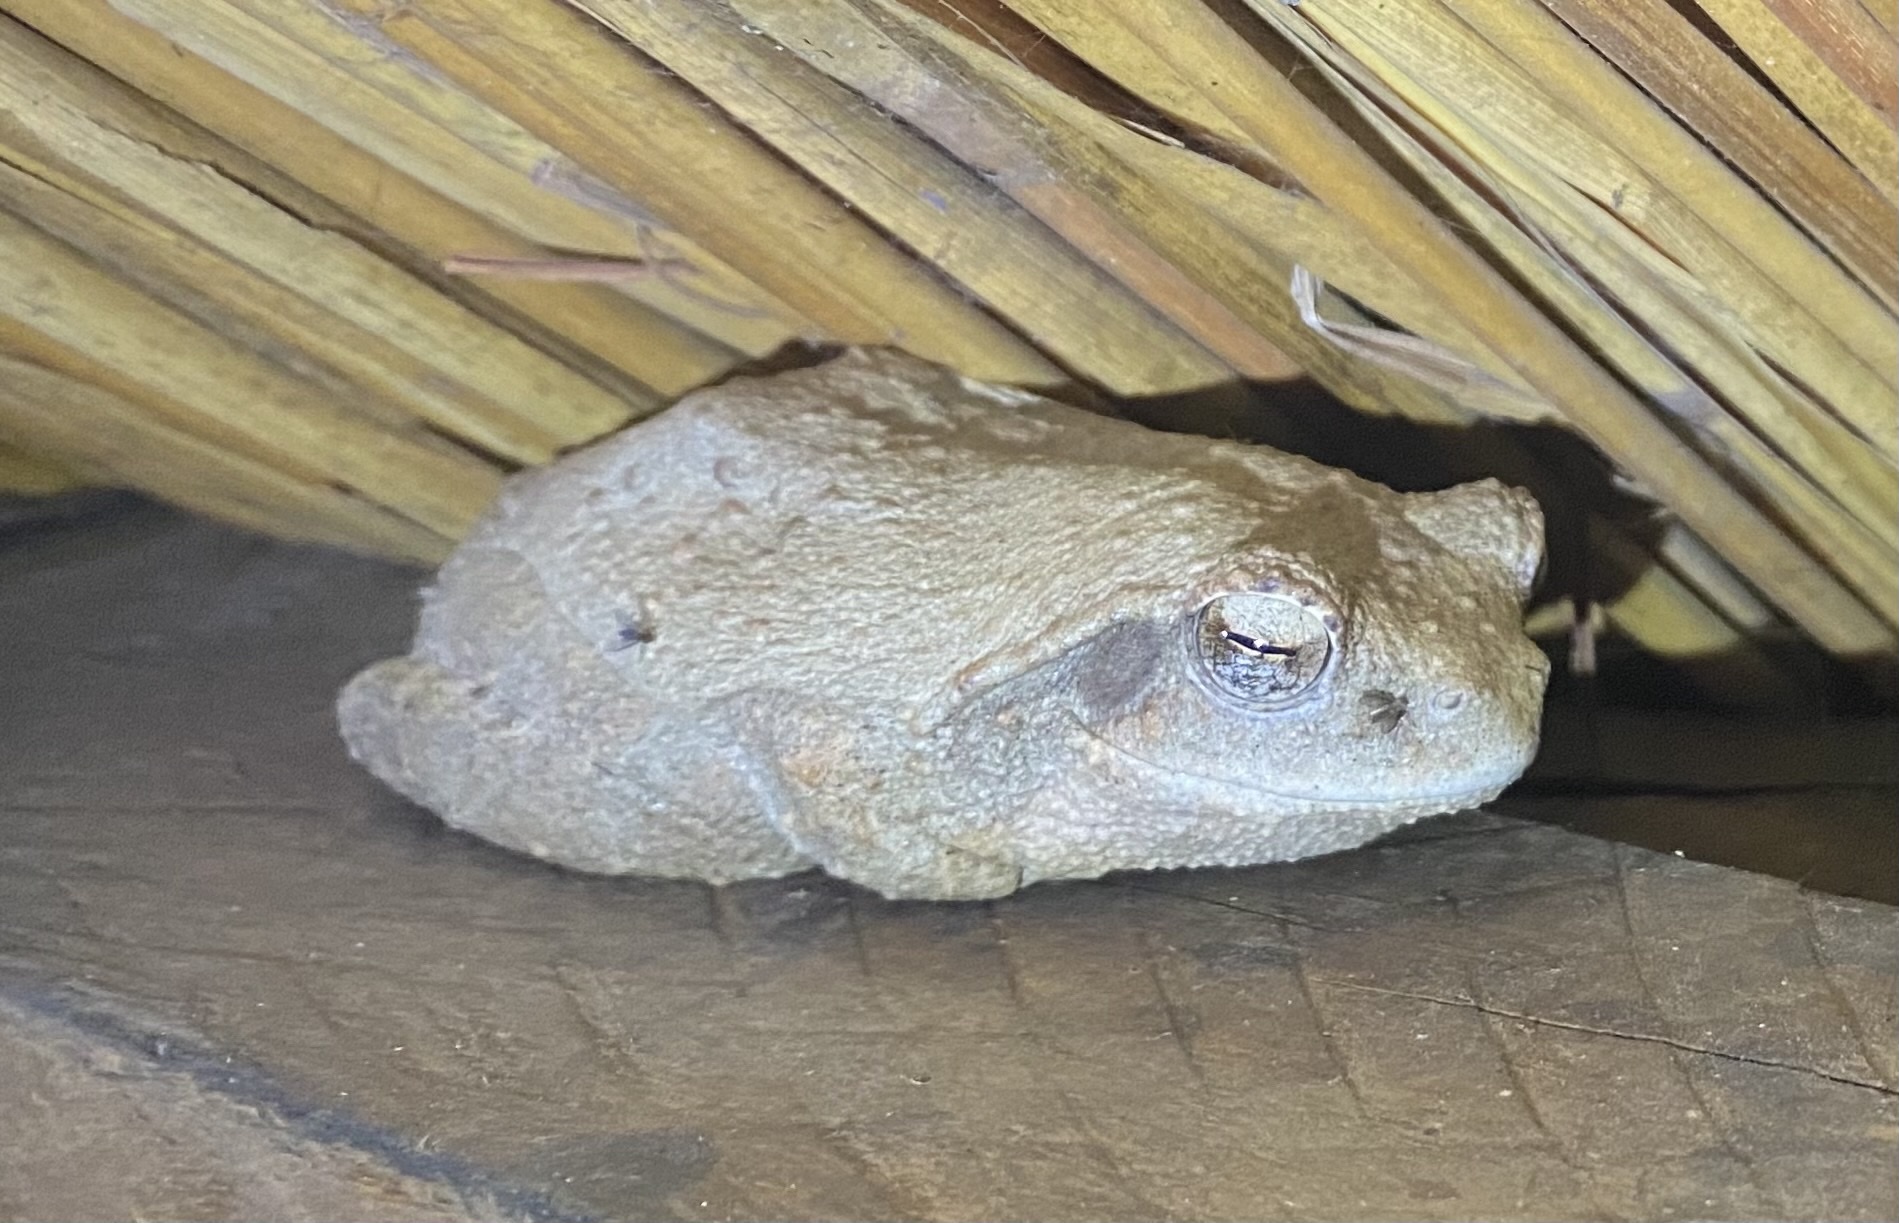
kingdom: Animalia
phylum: Chordata
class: Amphibia
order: Anura
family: Rhacophoridae
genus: Chiromantis
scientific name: Chiromantis xerampelina
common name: African gray treefrog
